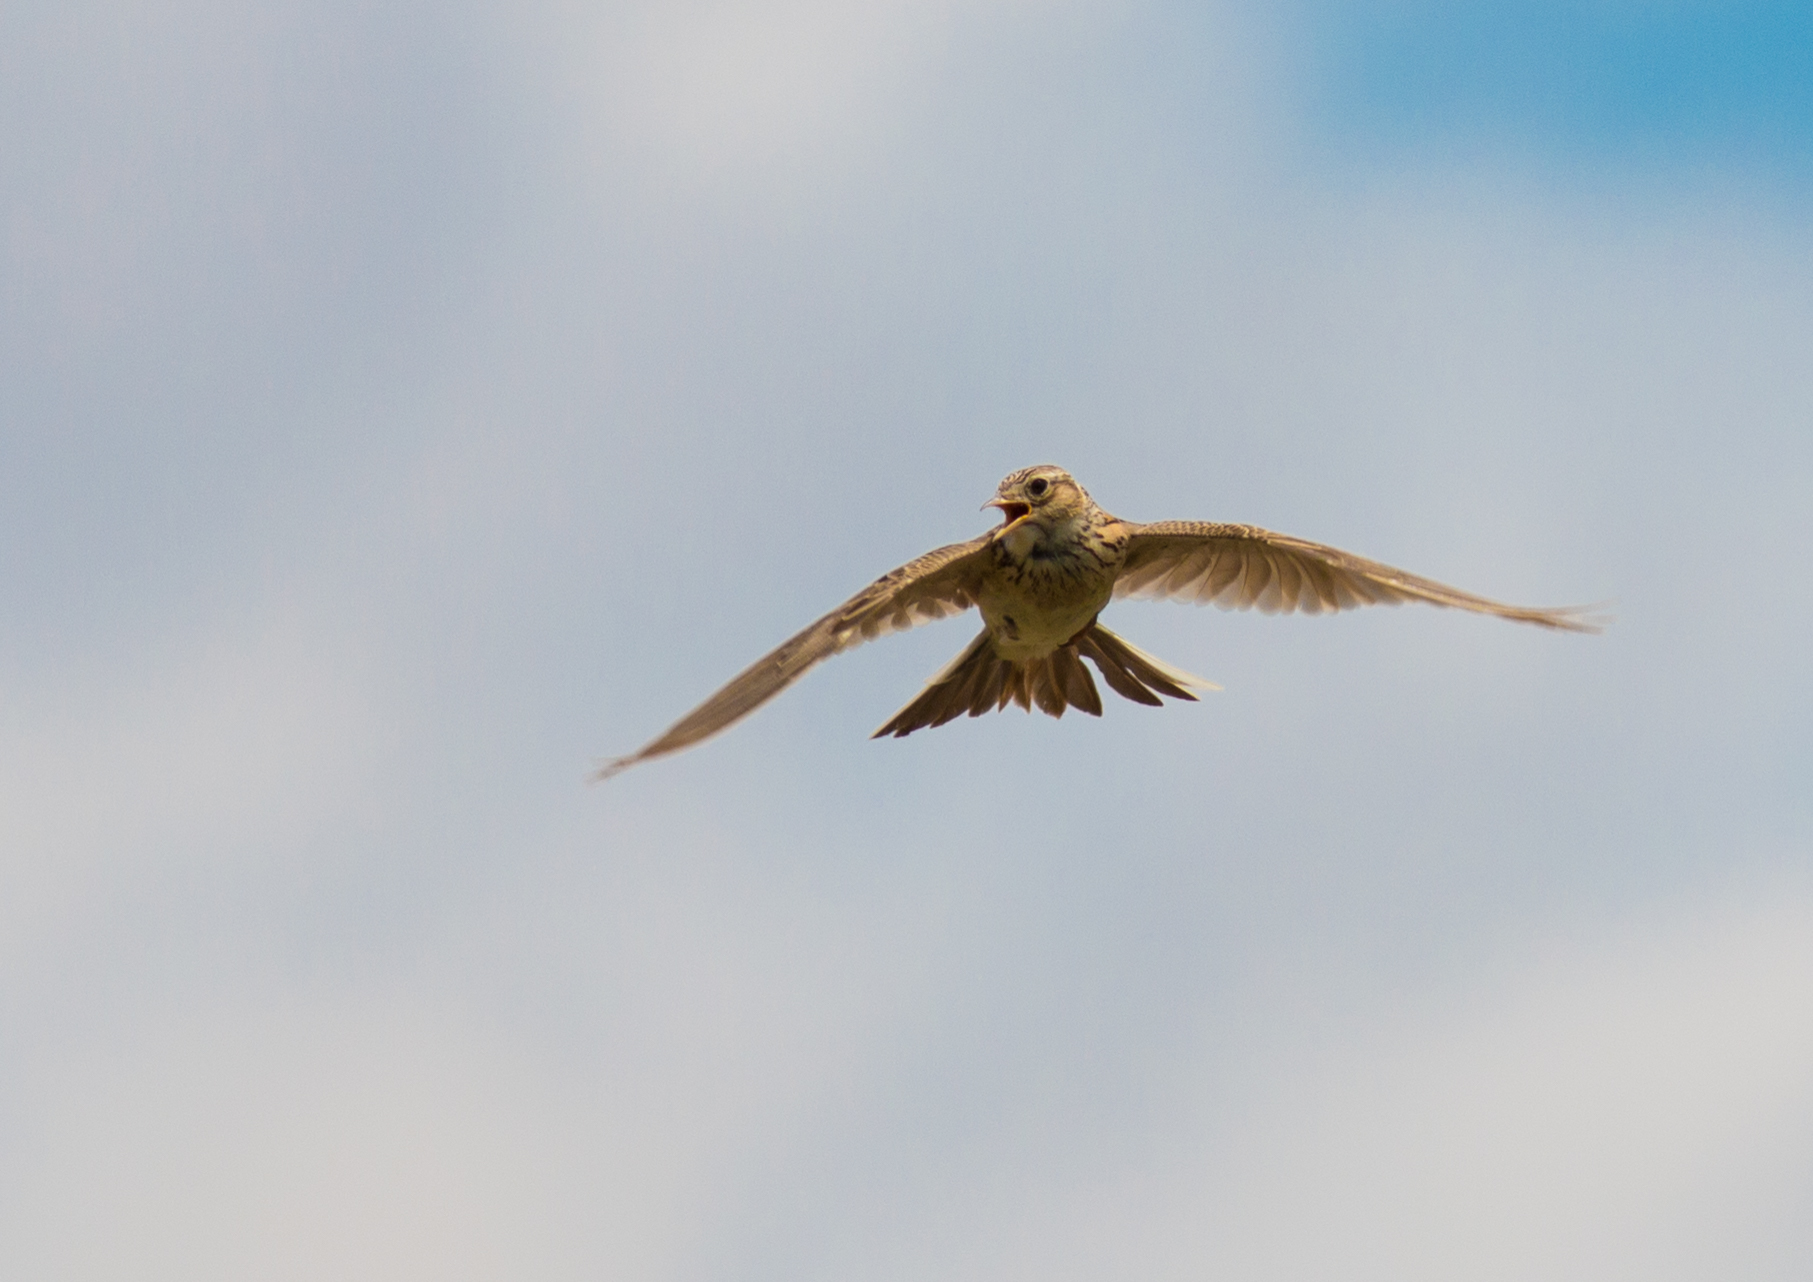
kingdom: Animalia
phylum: Chordata
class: Aves
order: Passeriformes
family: Alaudidae
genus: Alauda
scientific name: Alauda arvensis
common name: Eurasian skylark
